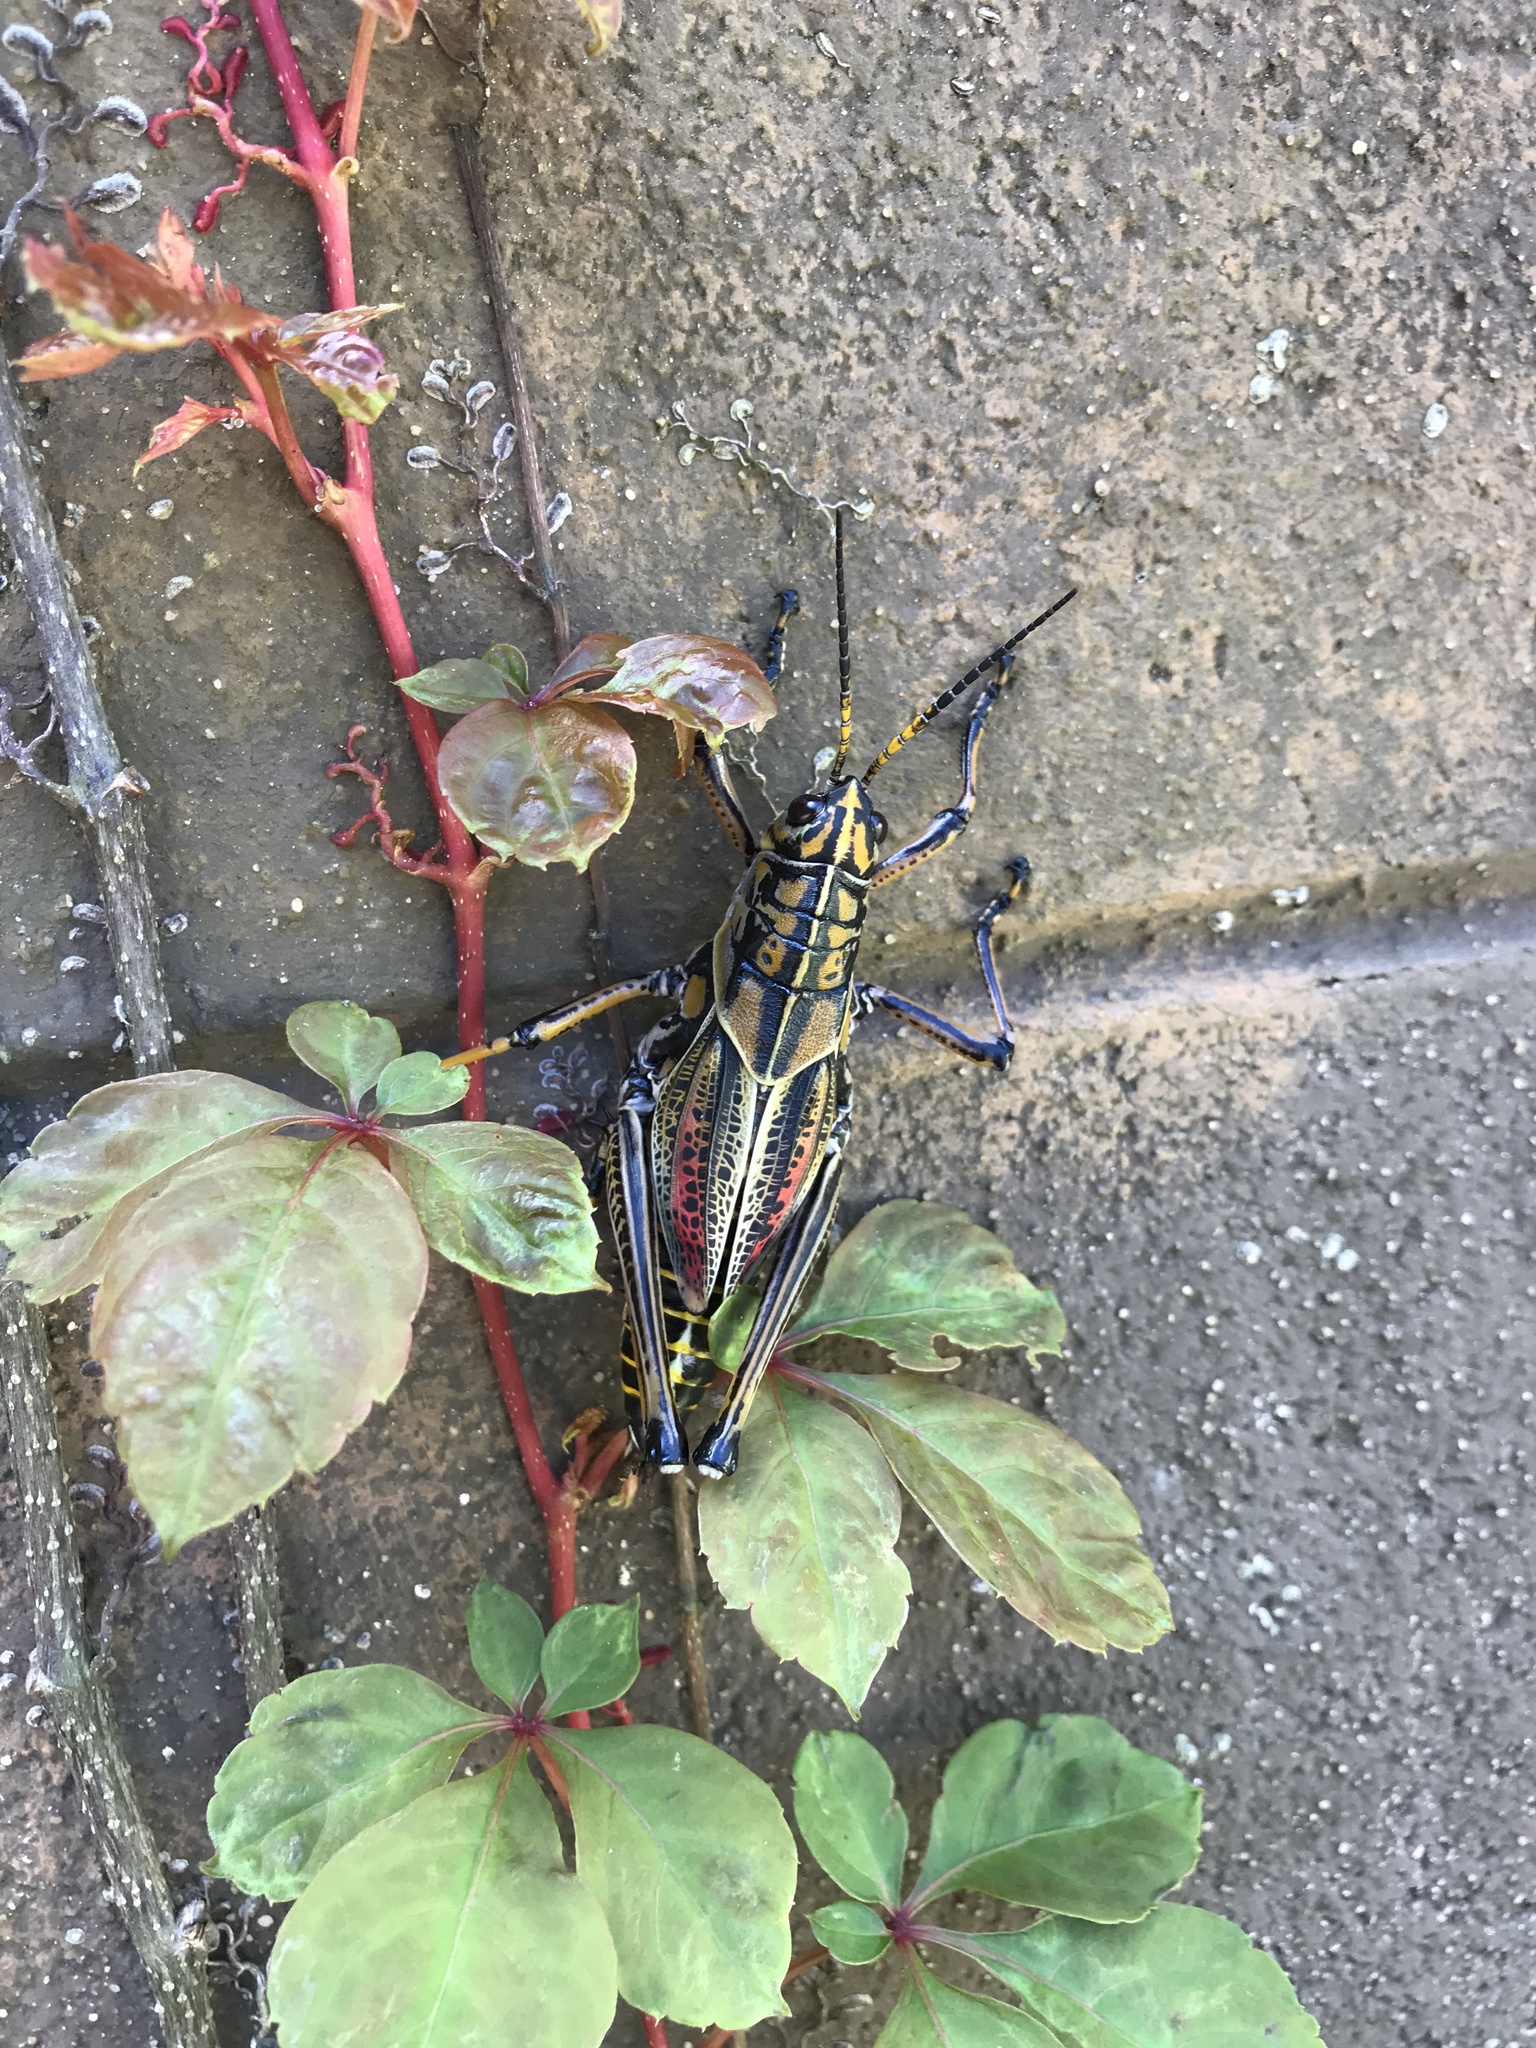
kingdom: Animalia
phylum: Arthropoda
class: Insecta
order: Orthoptera
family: Romaleidae
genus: Romalea
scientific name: Romalea microptera
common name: Eastern lubber grasshopper
